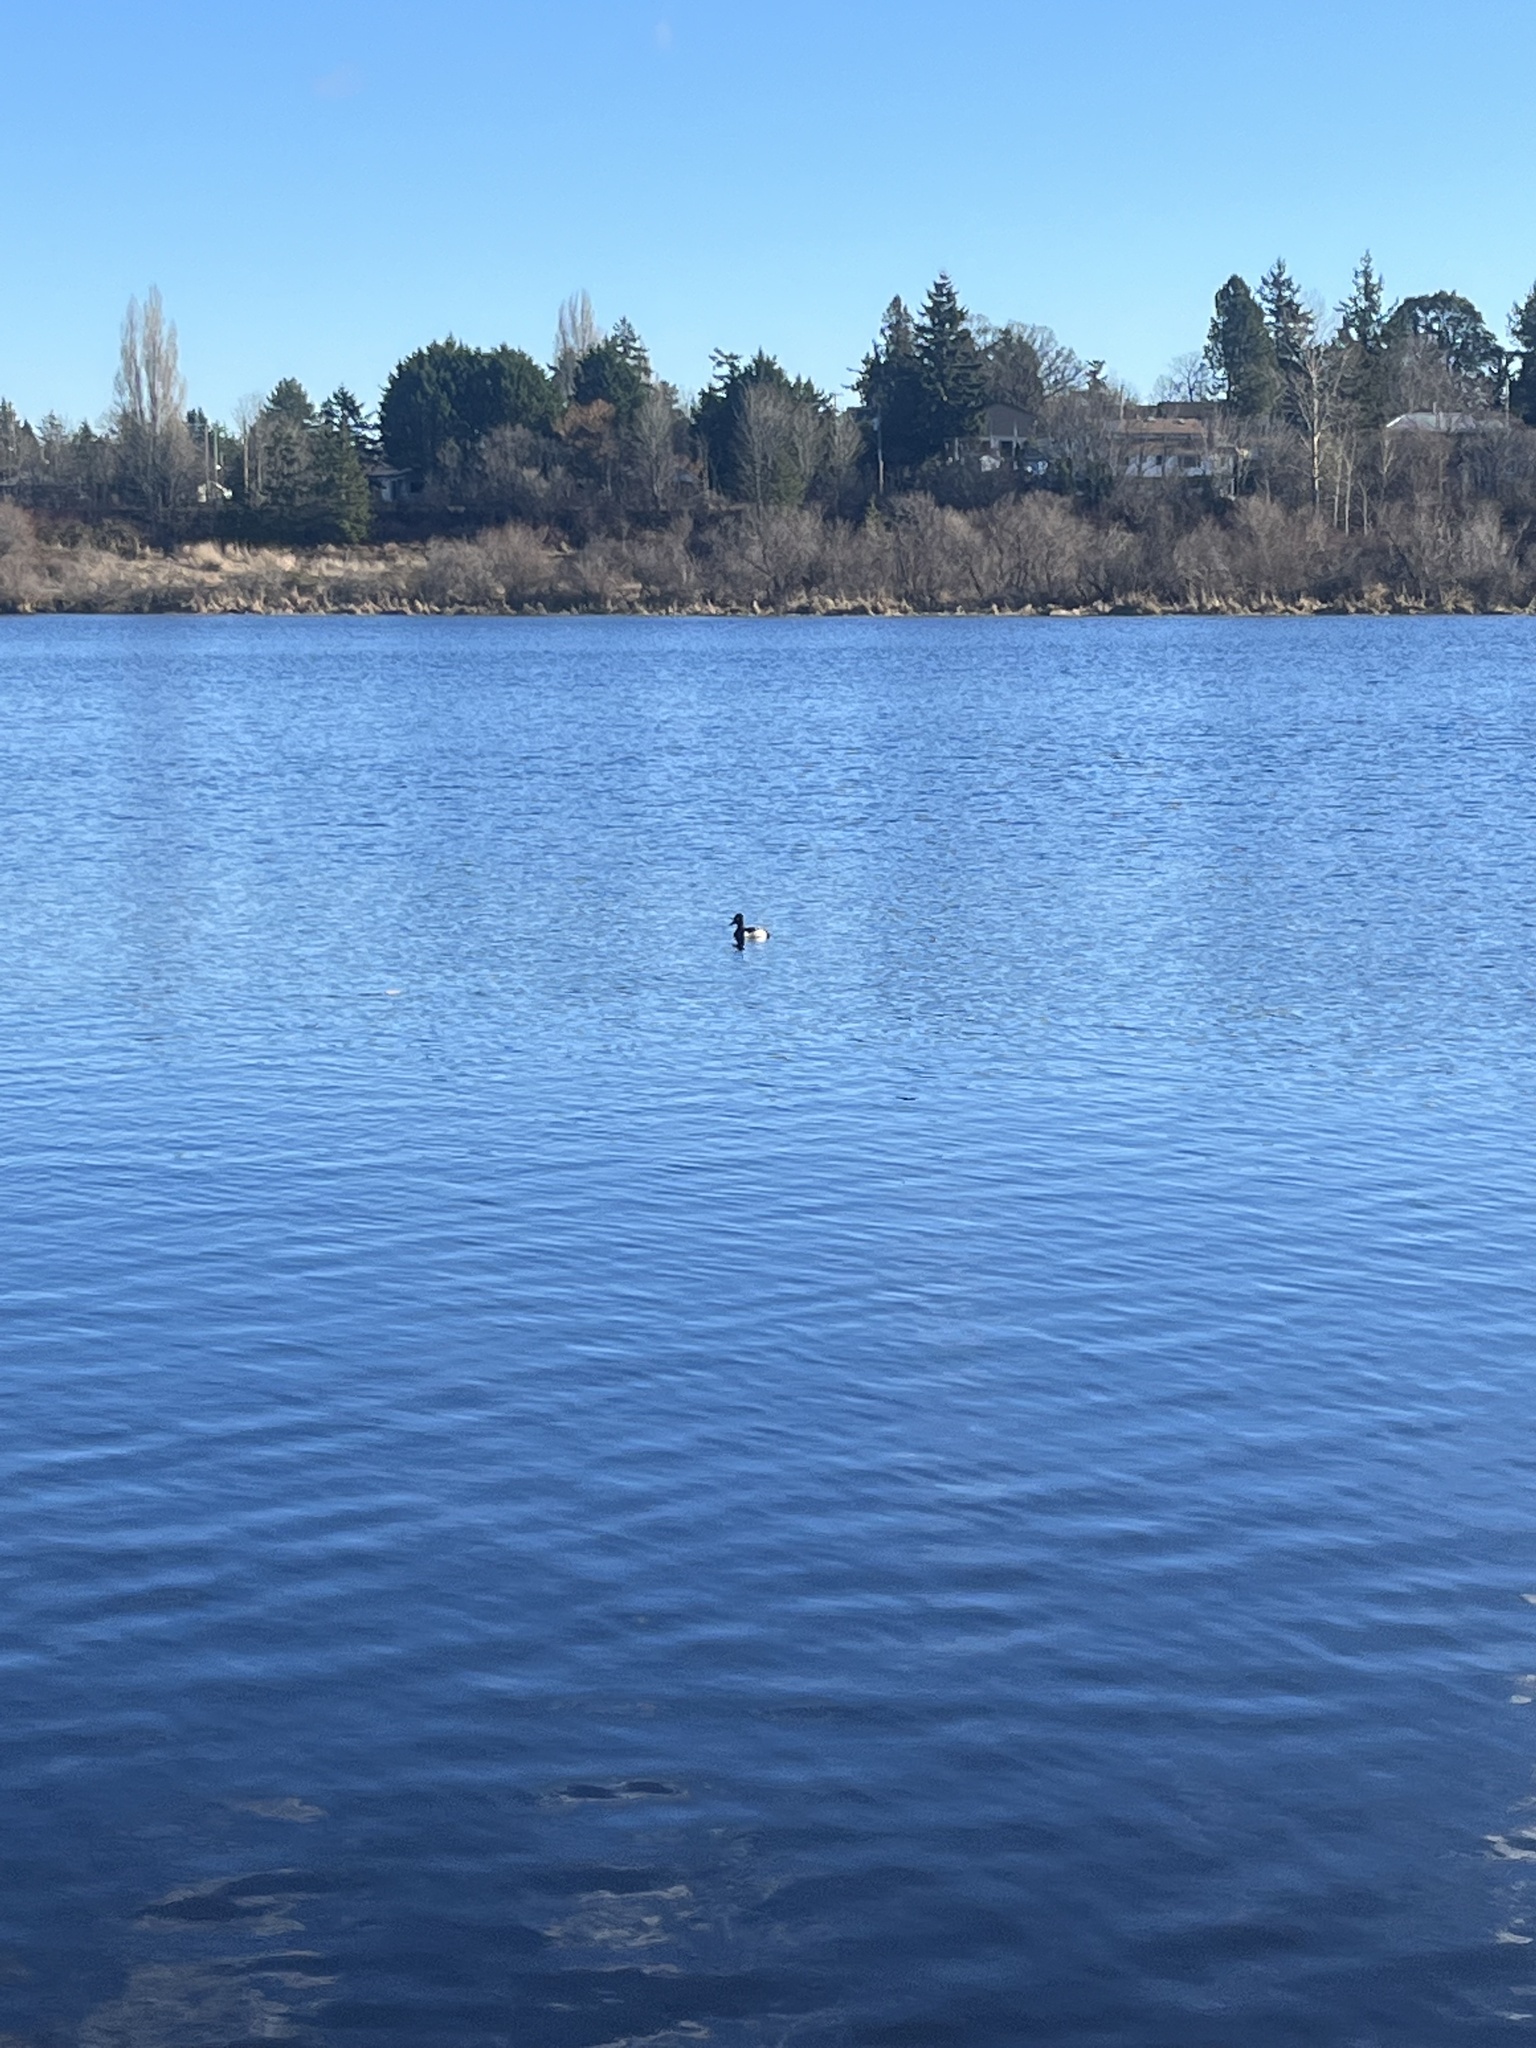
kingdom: Animalia
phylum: Chordata
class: Aves
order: Anseriformes
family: Anatidae
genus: Aythya
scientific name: Aythya collaris
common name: Ring-necked duck
